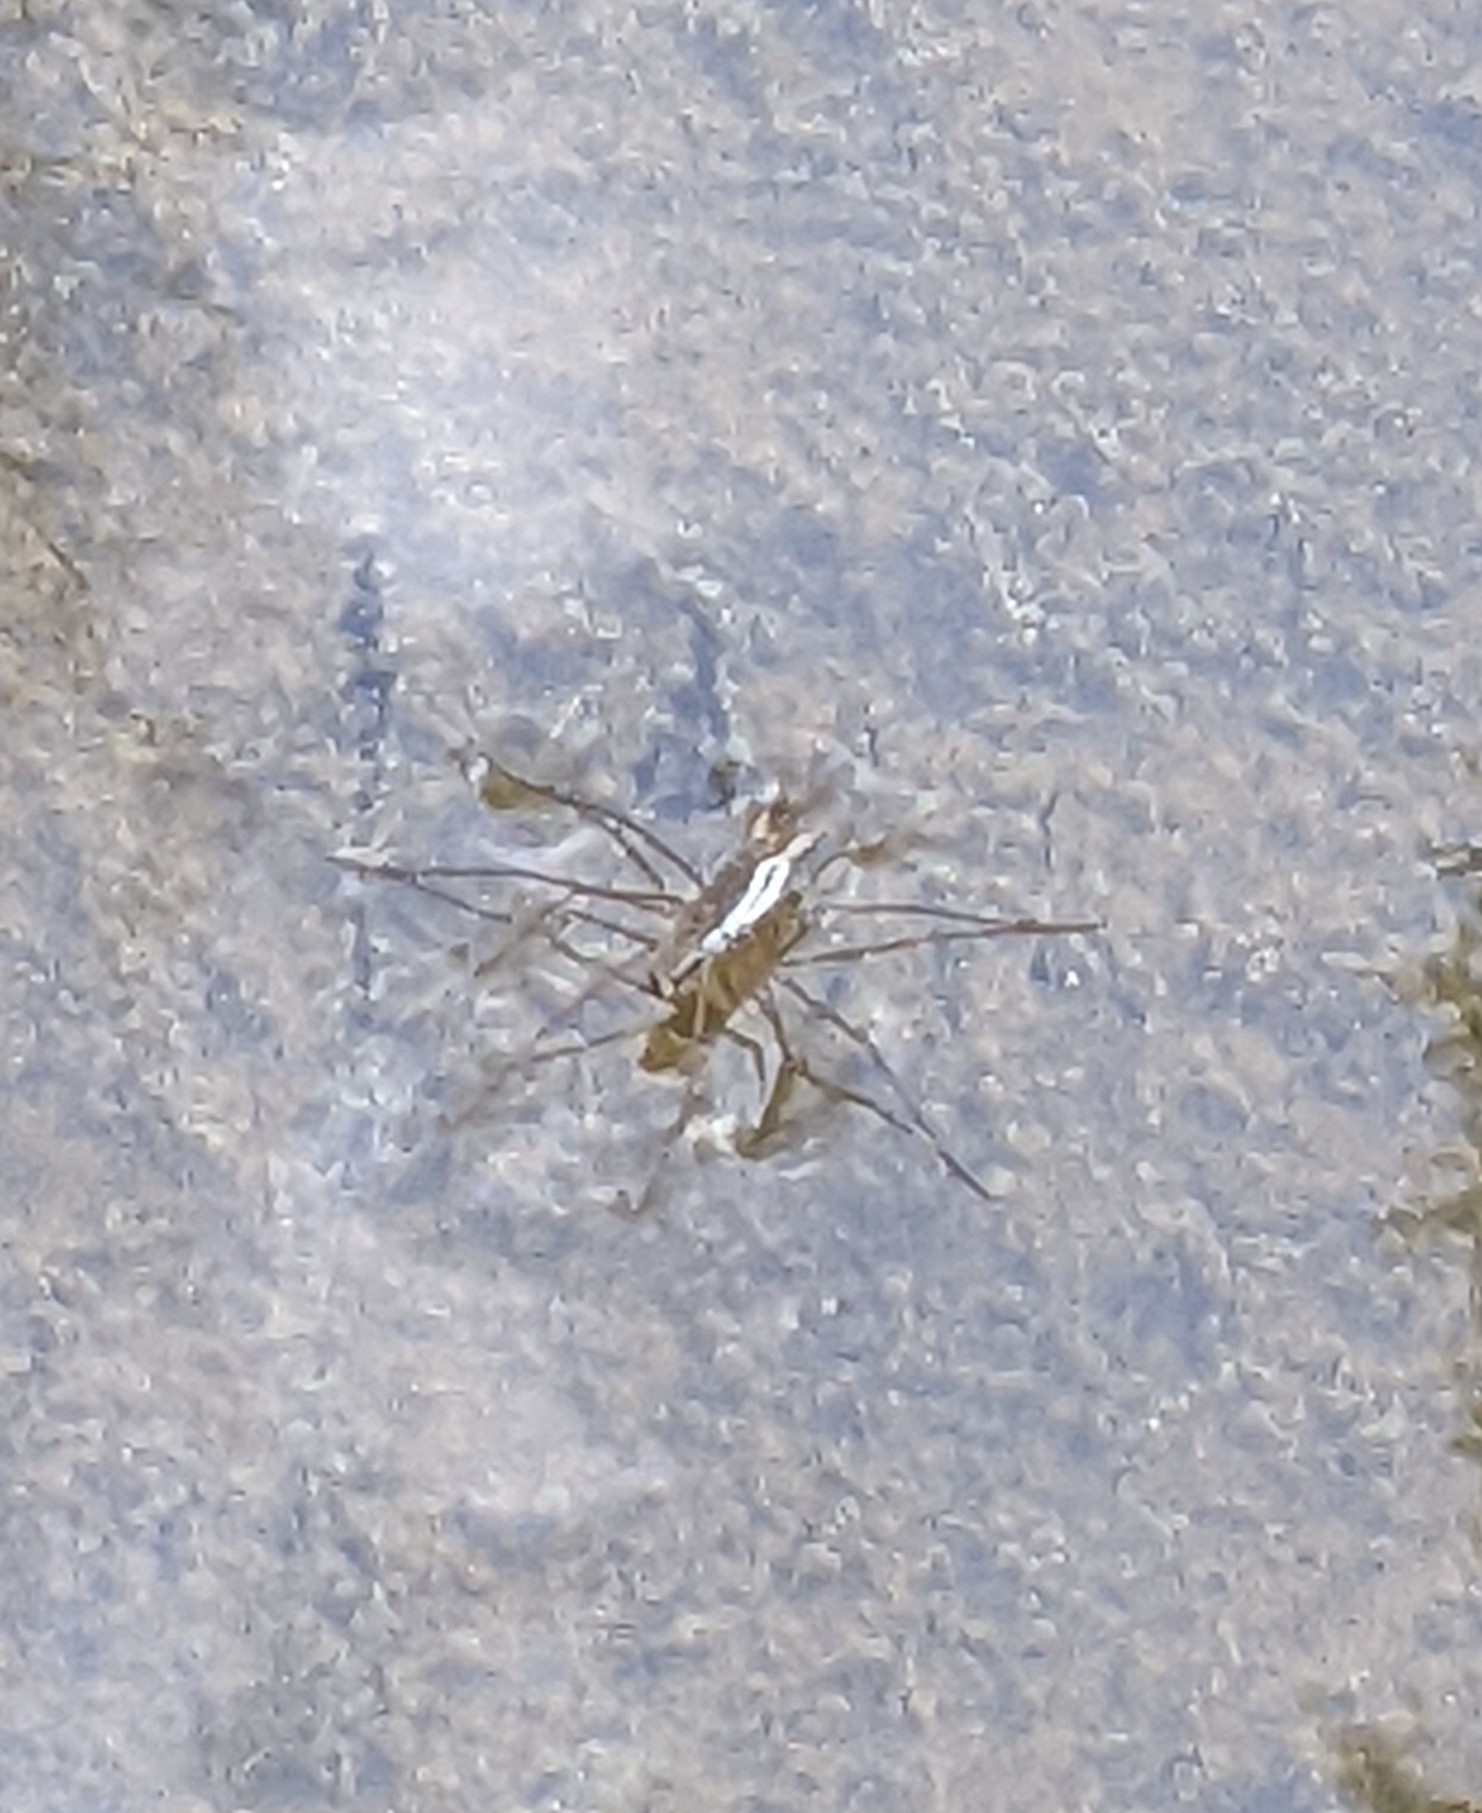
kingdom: Animalia
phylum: Arthropoda
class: Insecta
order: Hemiptera
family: Gerridae
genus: Aquarius
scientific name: Aquarius remigis
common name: Common water strider
